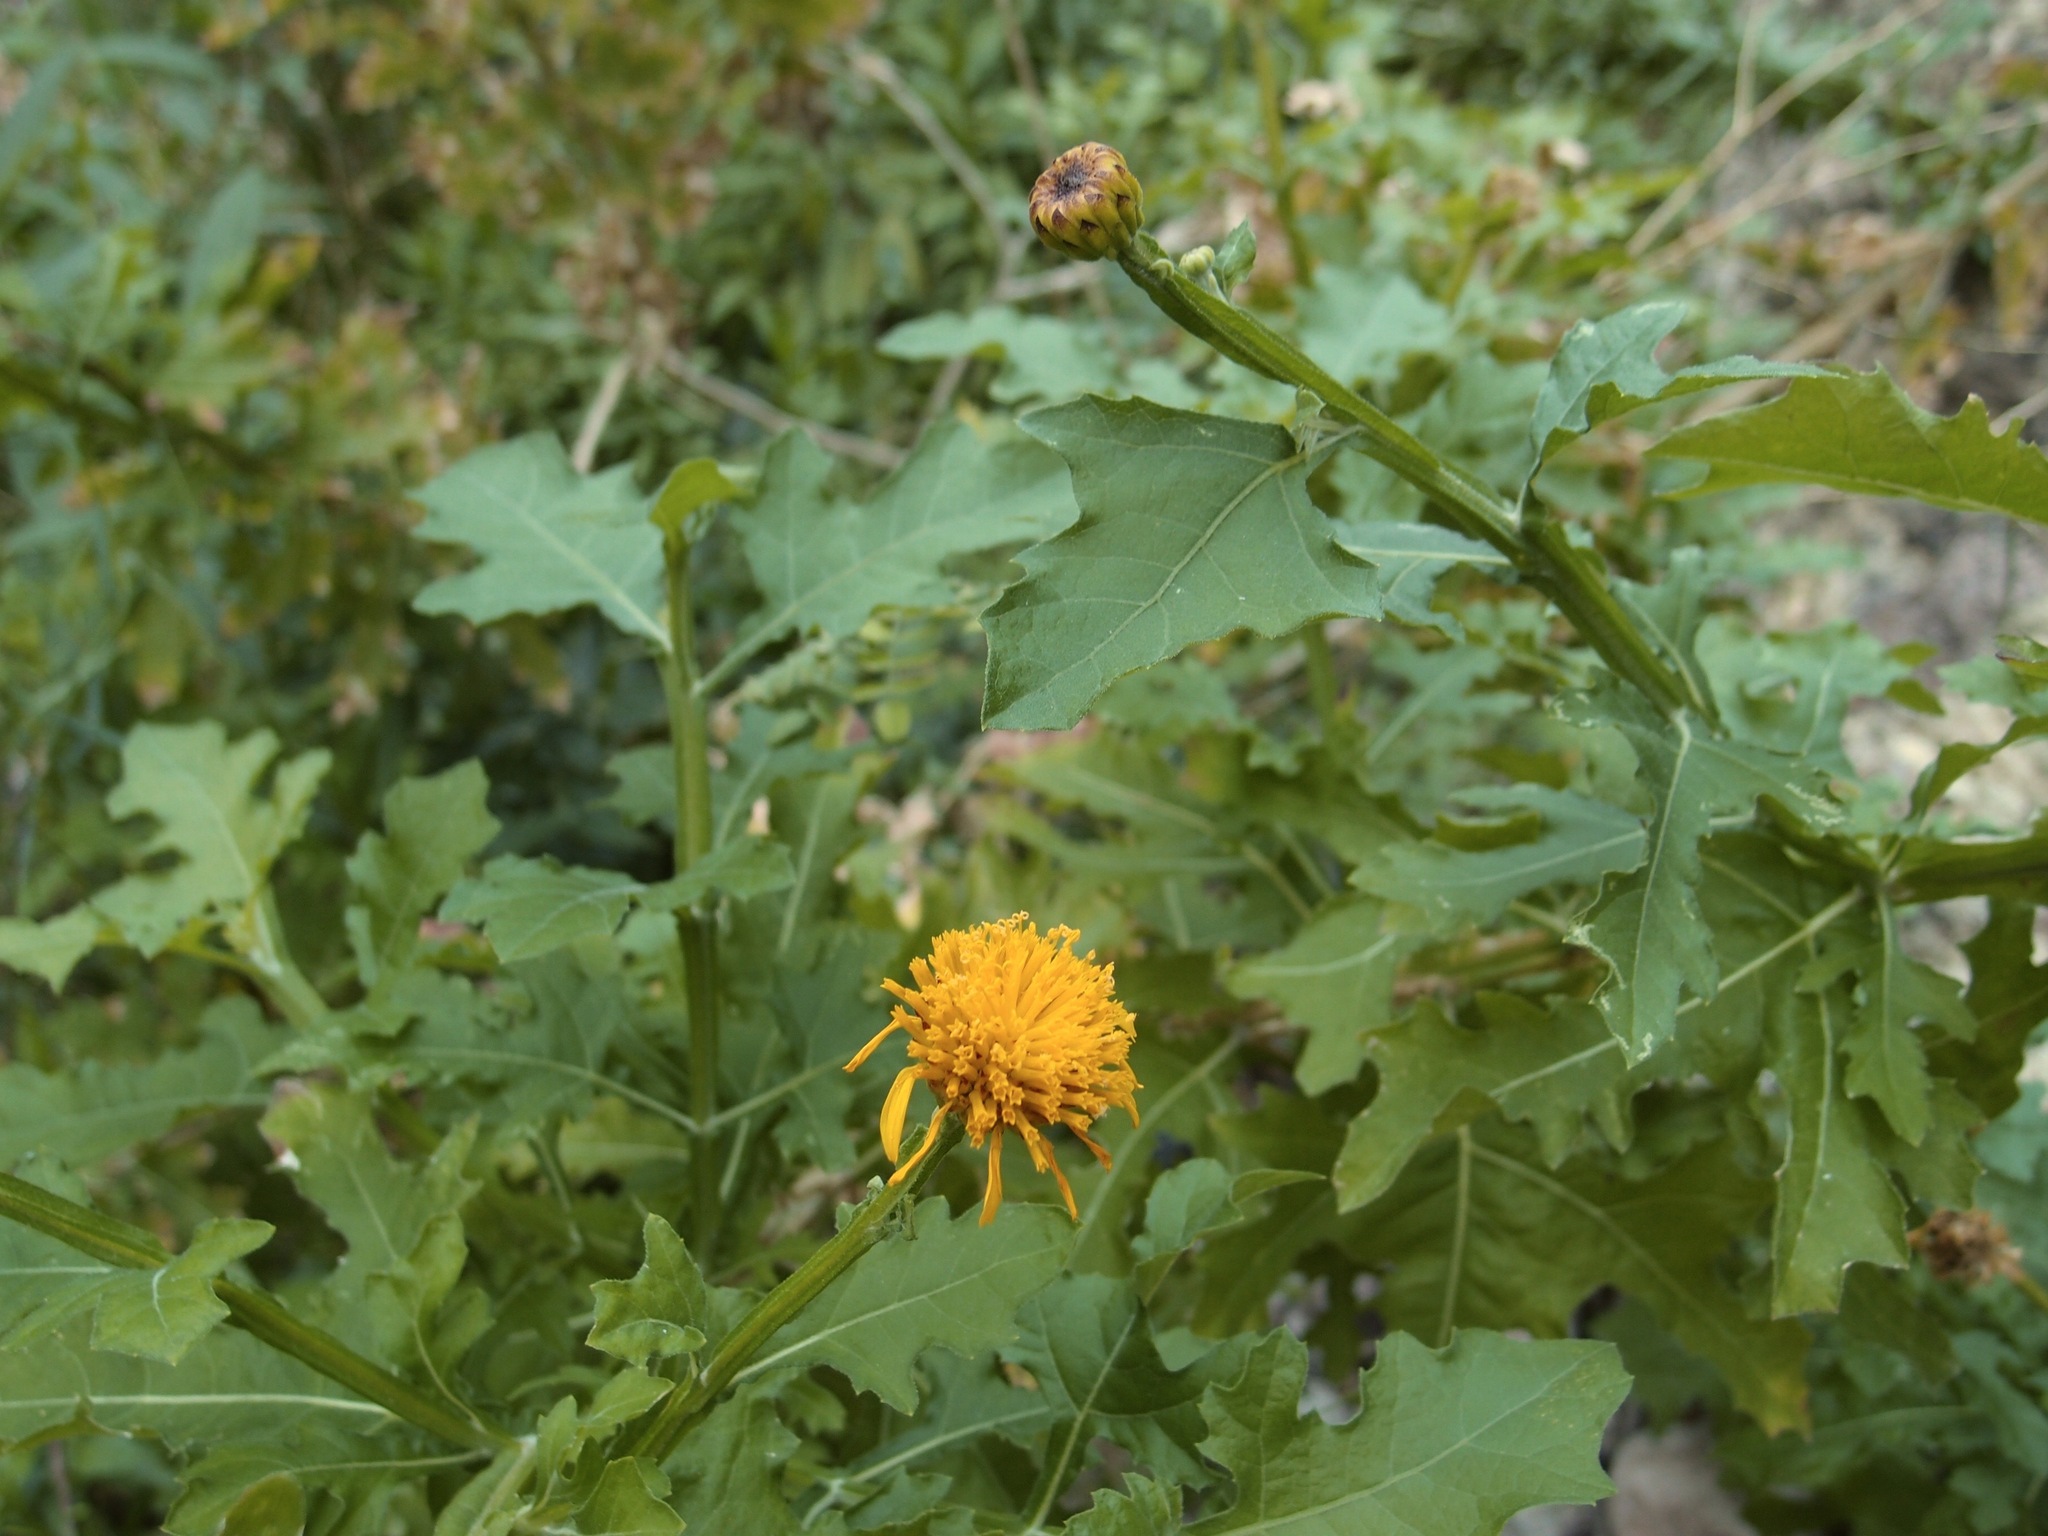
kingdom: Plantae
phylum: Tracheophyta
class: Magnoliopsida
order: Asterales
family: Asteraceae
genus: Verbesina
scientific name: Verbesina felgeri
